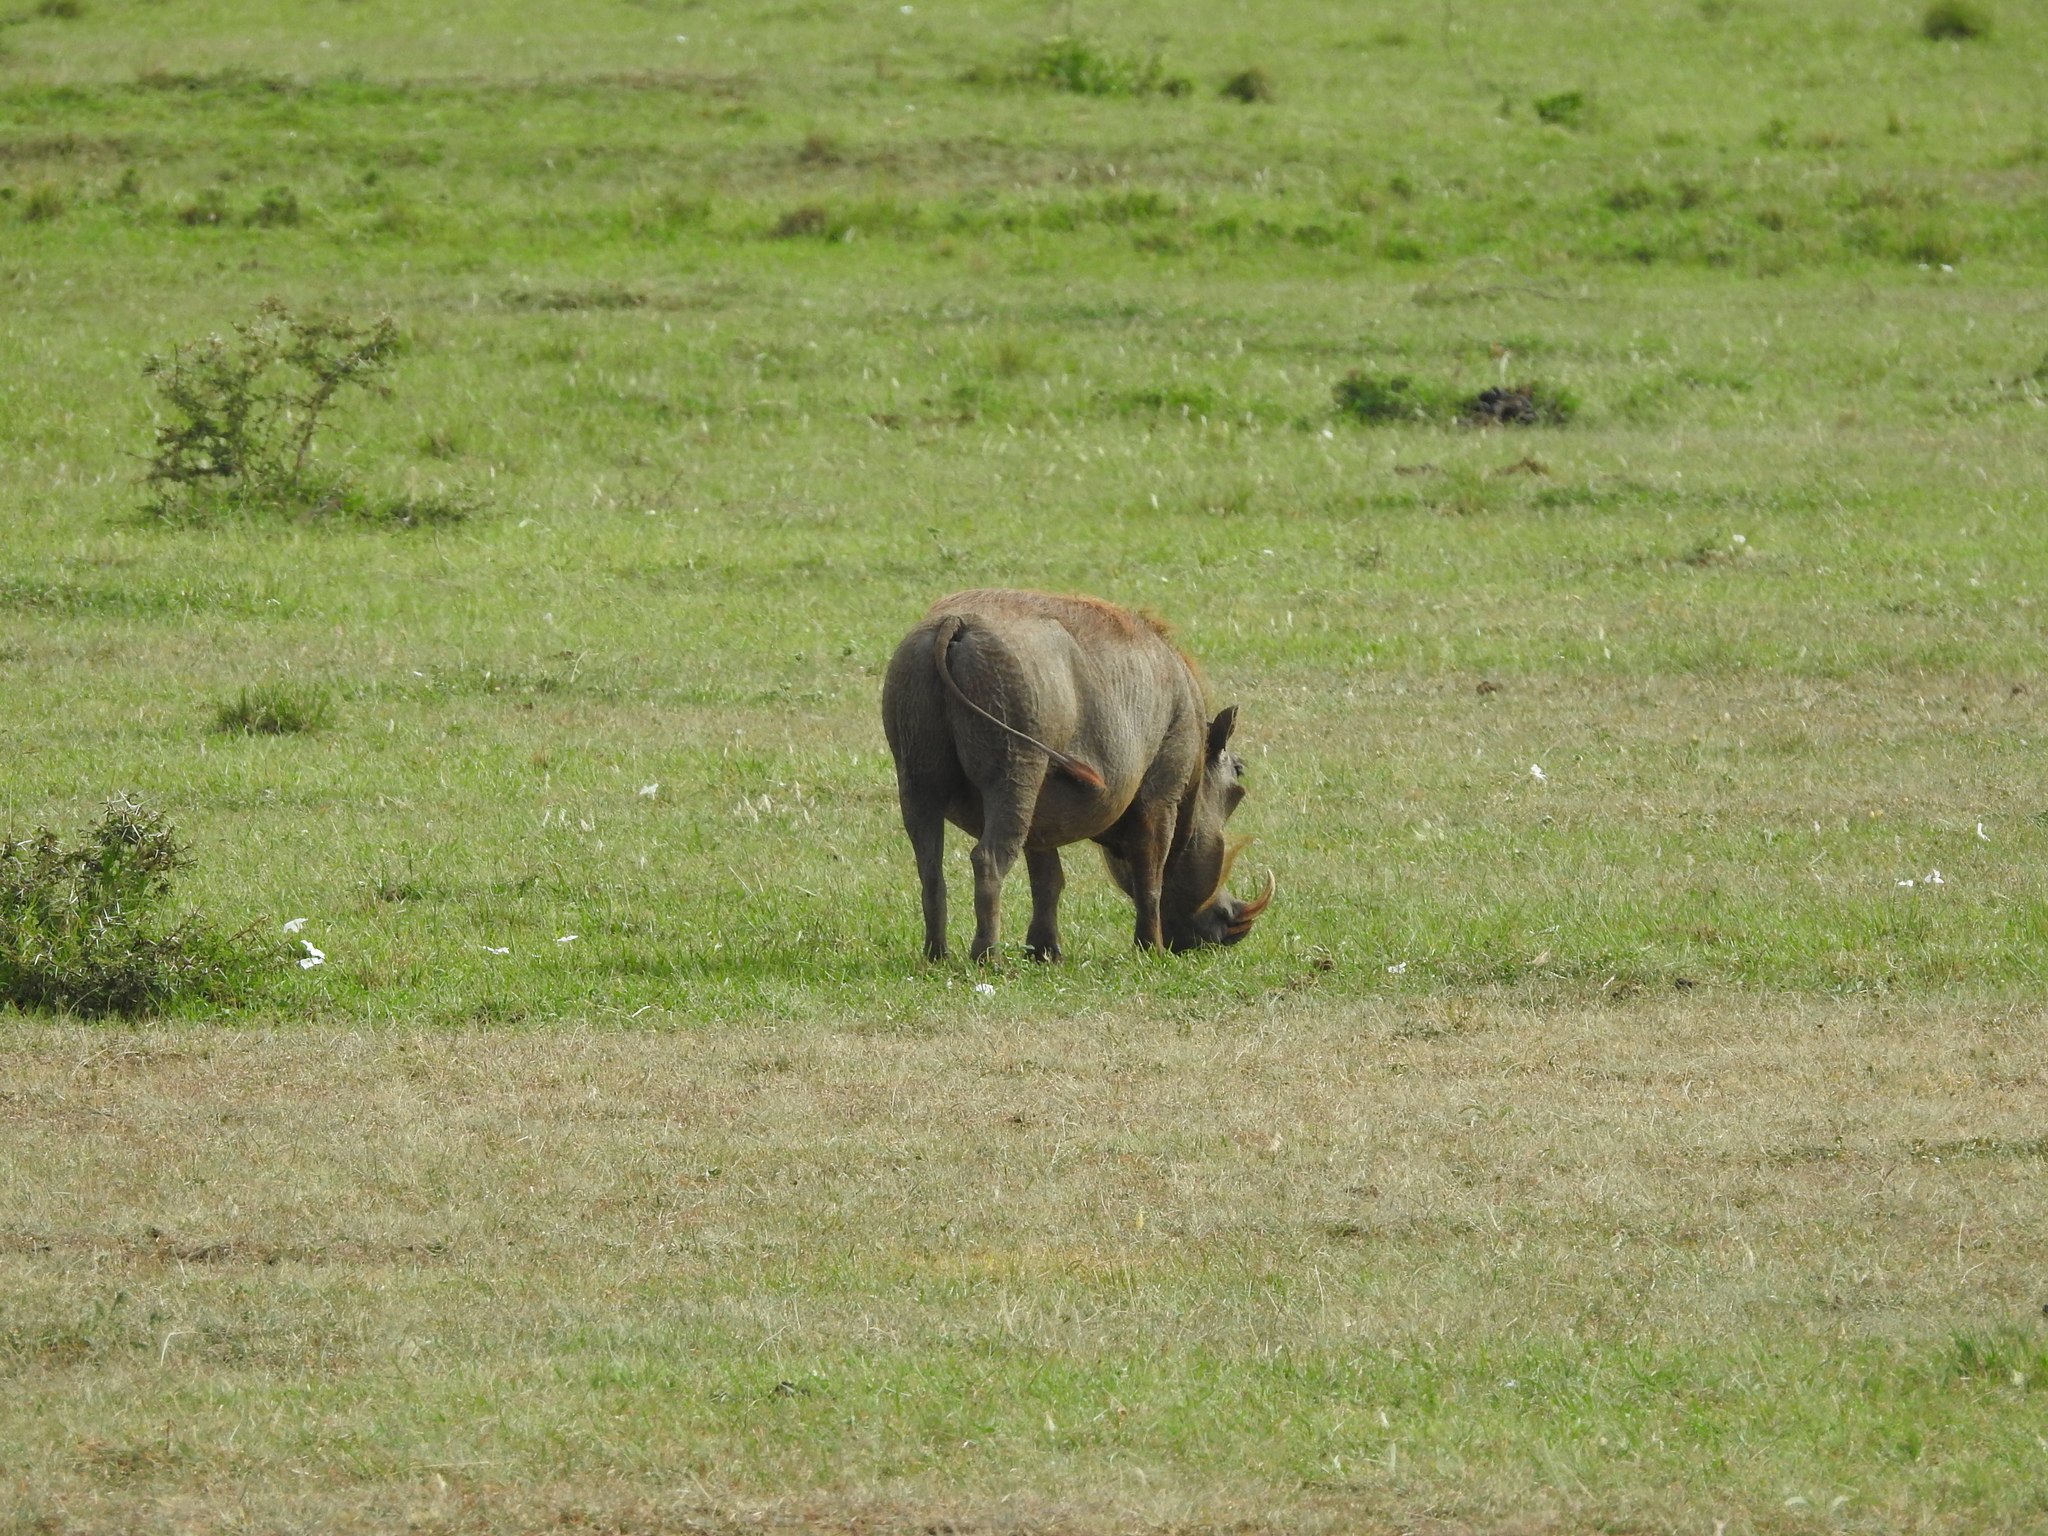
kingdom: Animalia
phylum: Chordata
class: Mammalia
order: Artiodactyla
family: Suidae
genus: Phacochoerus
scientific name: Phacochoerus africanus
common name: Common warthog
